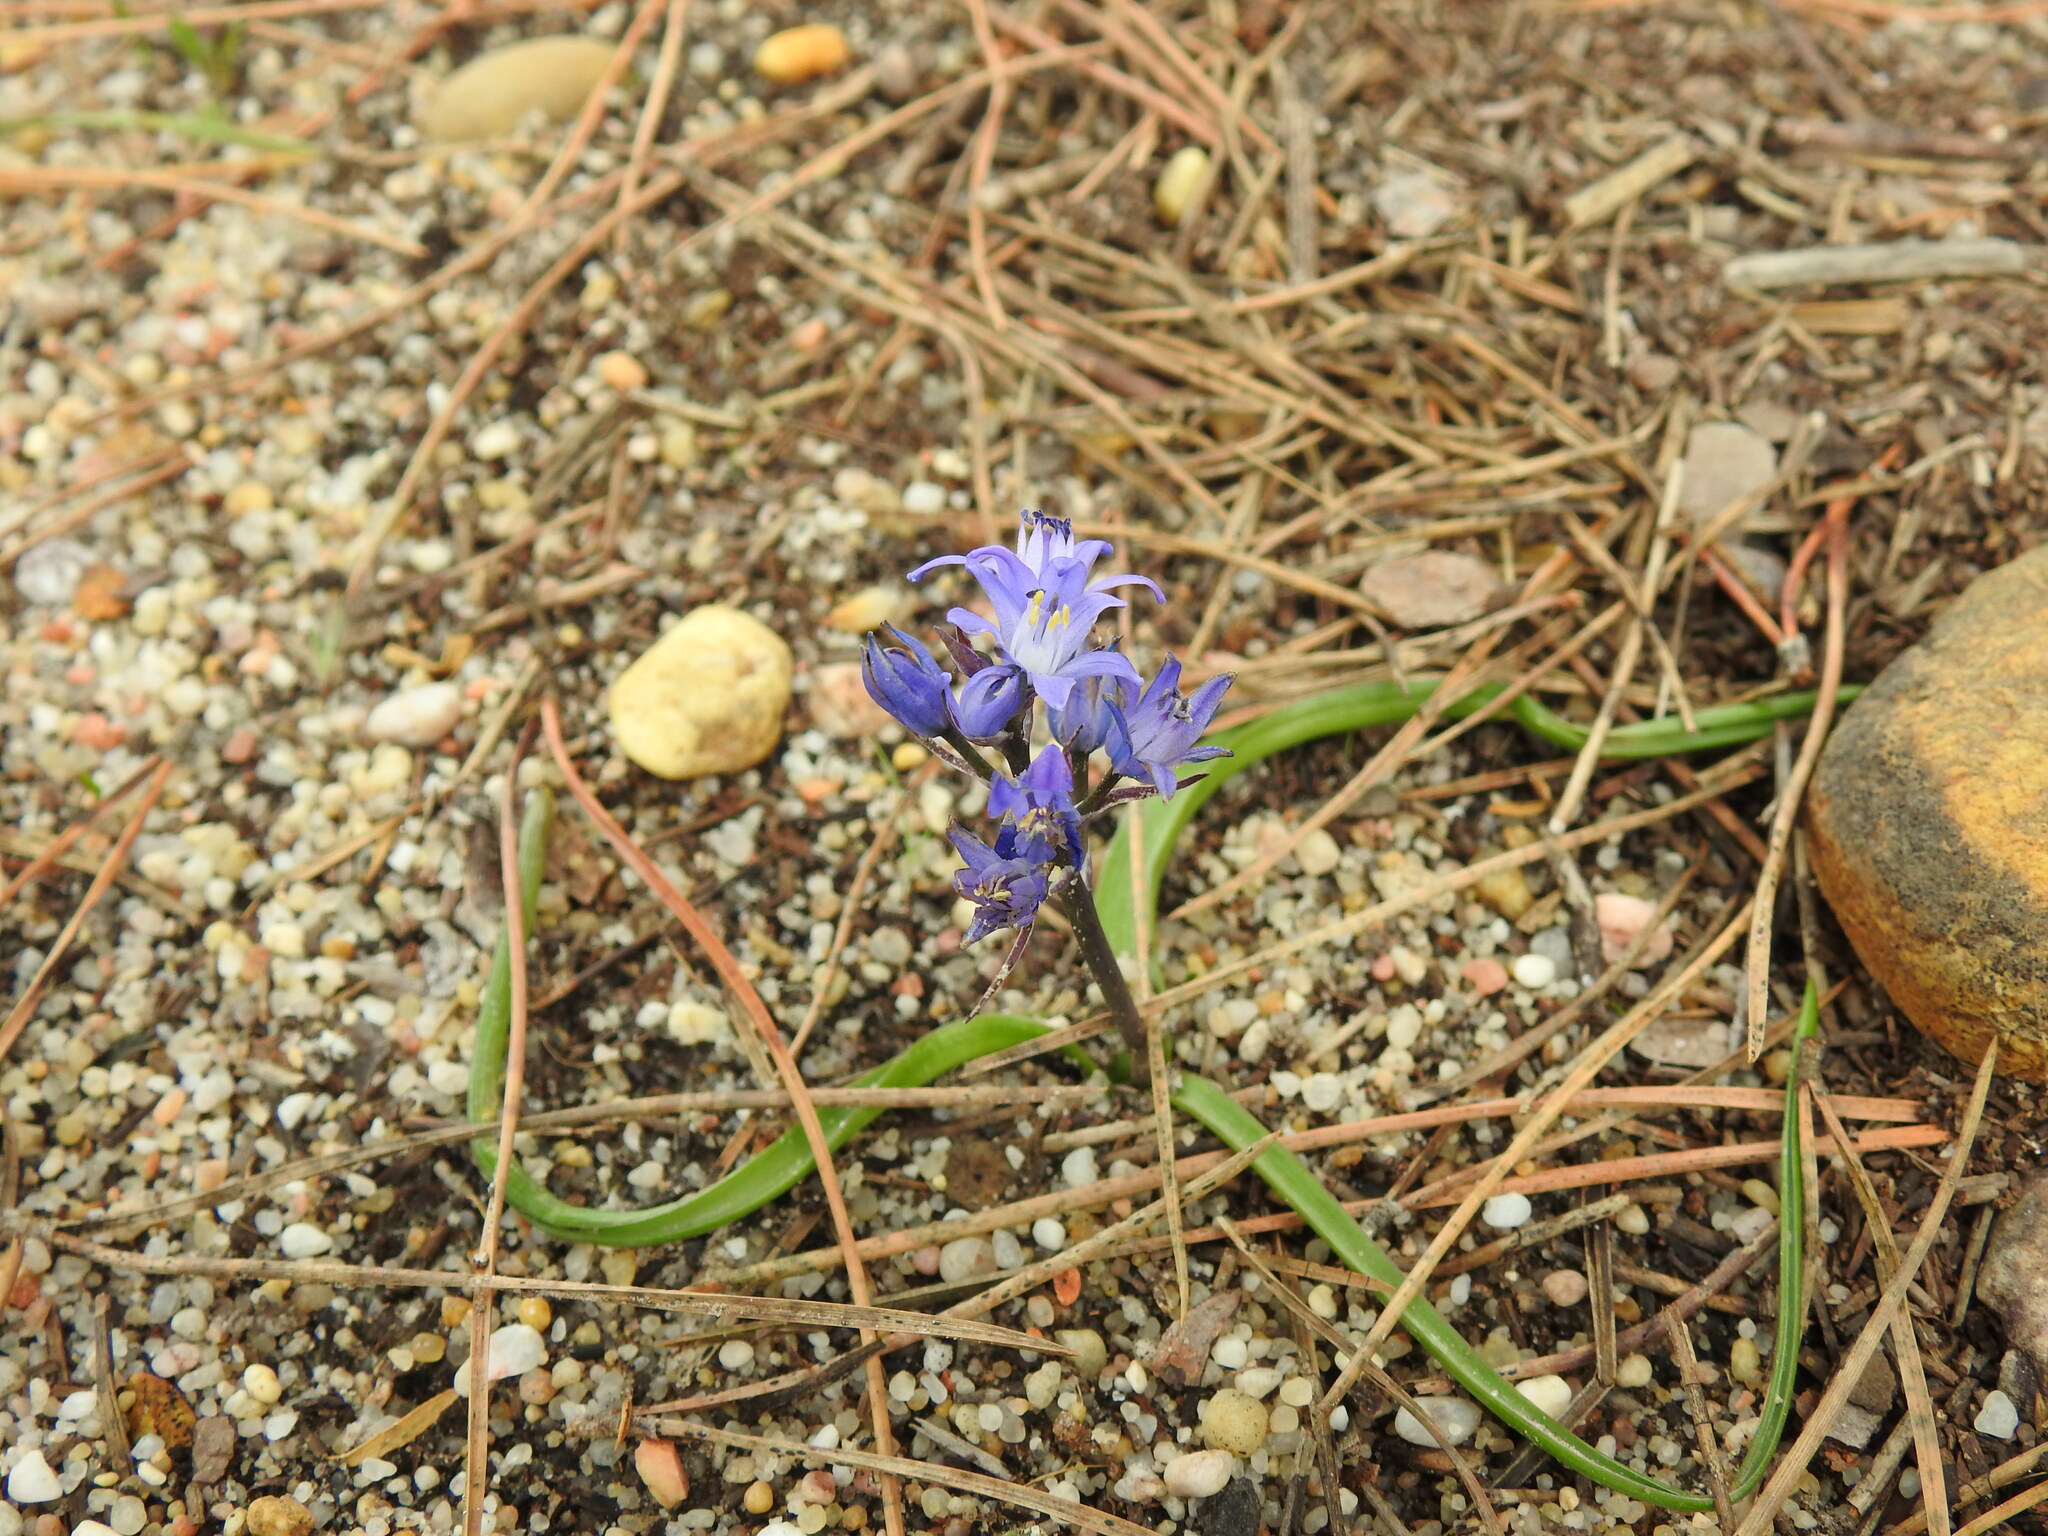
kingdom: Plantae
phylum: Tracheophyta
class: Liliopsida
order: Asparagales
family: Asparagaceae
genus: Scilla
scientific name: Scilla verna
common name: Spring squill
